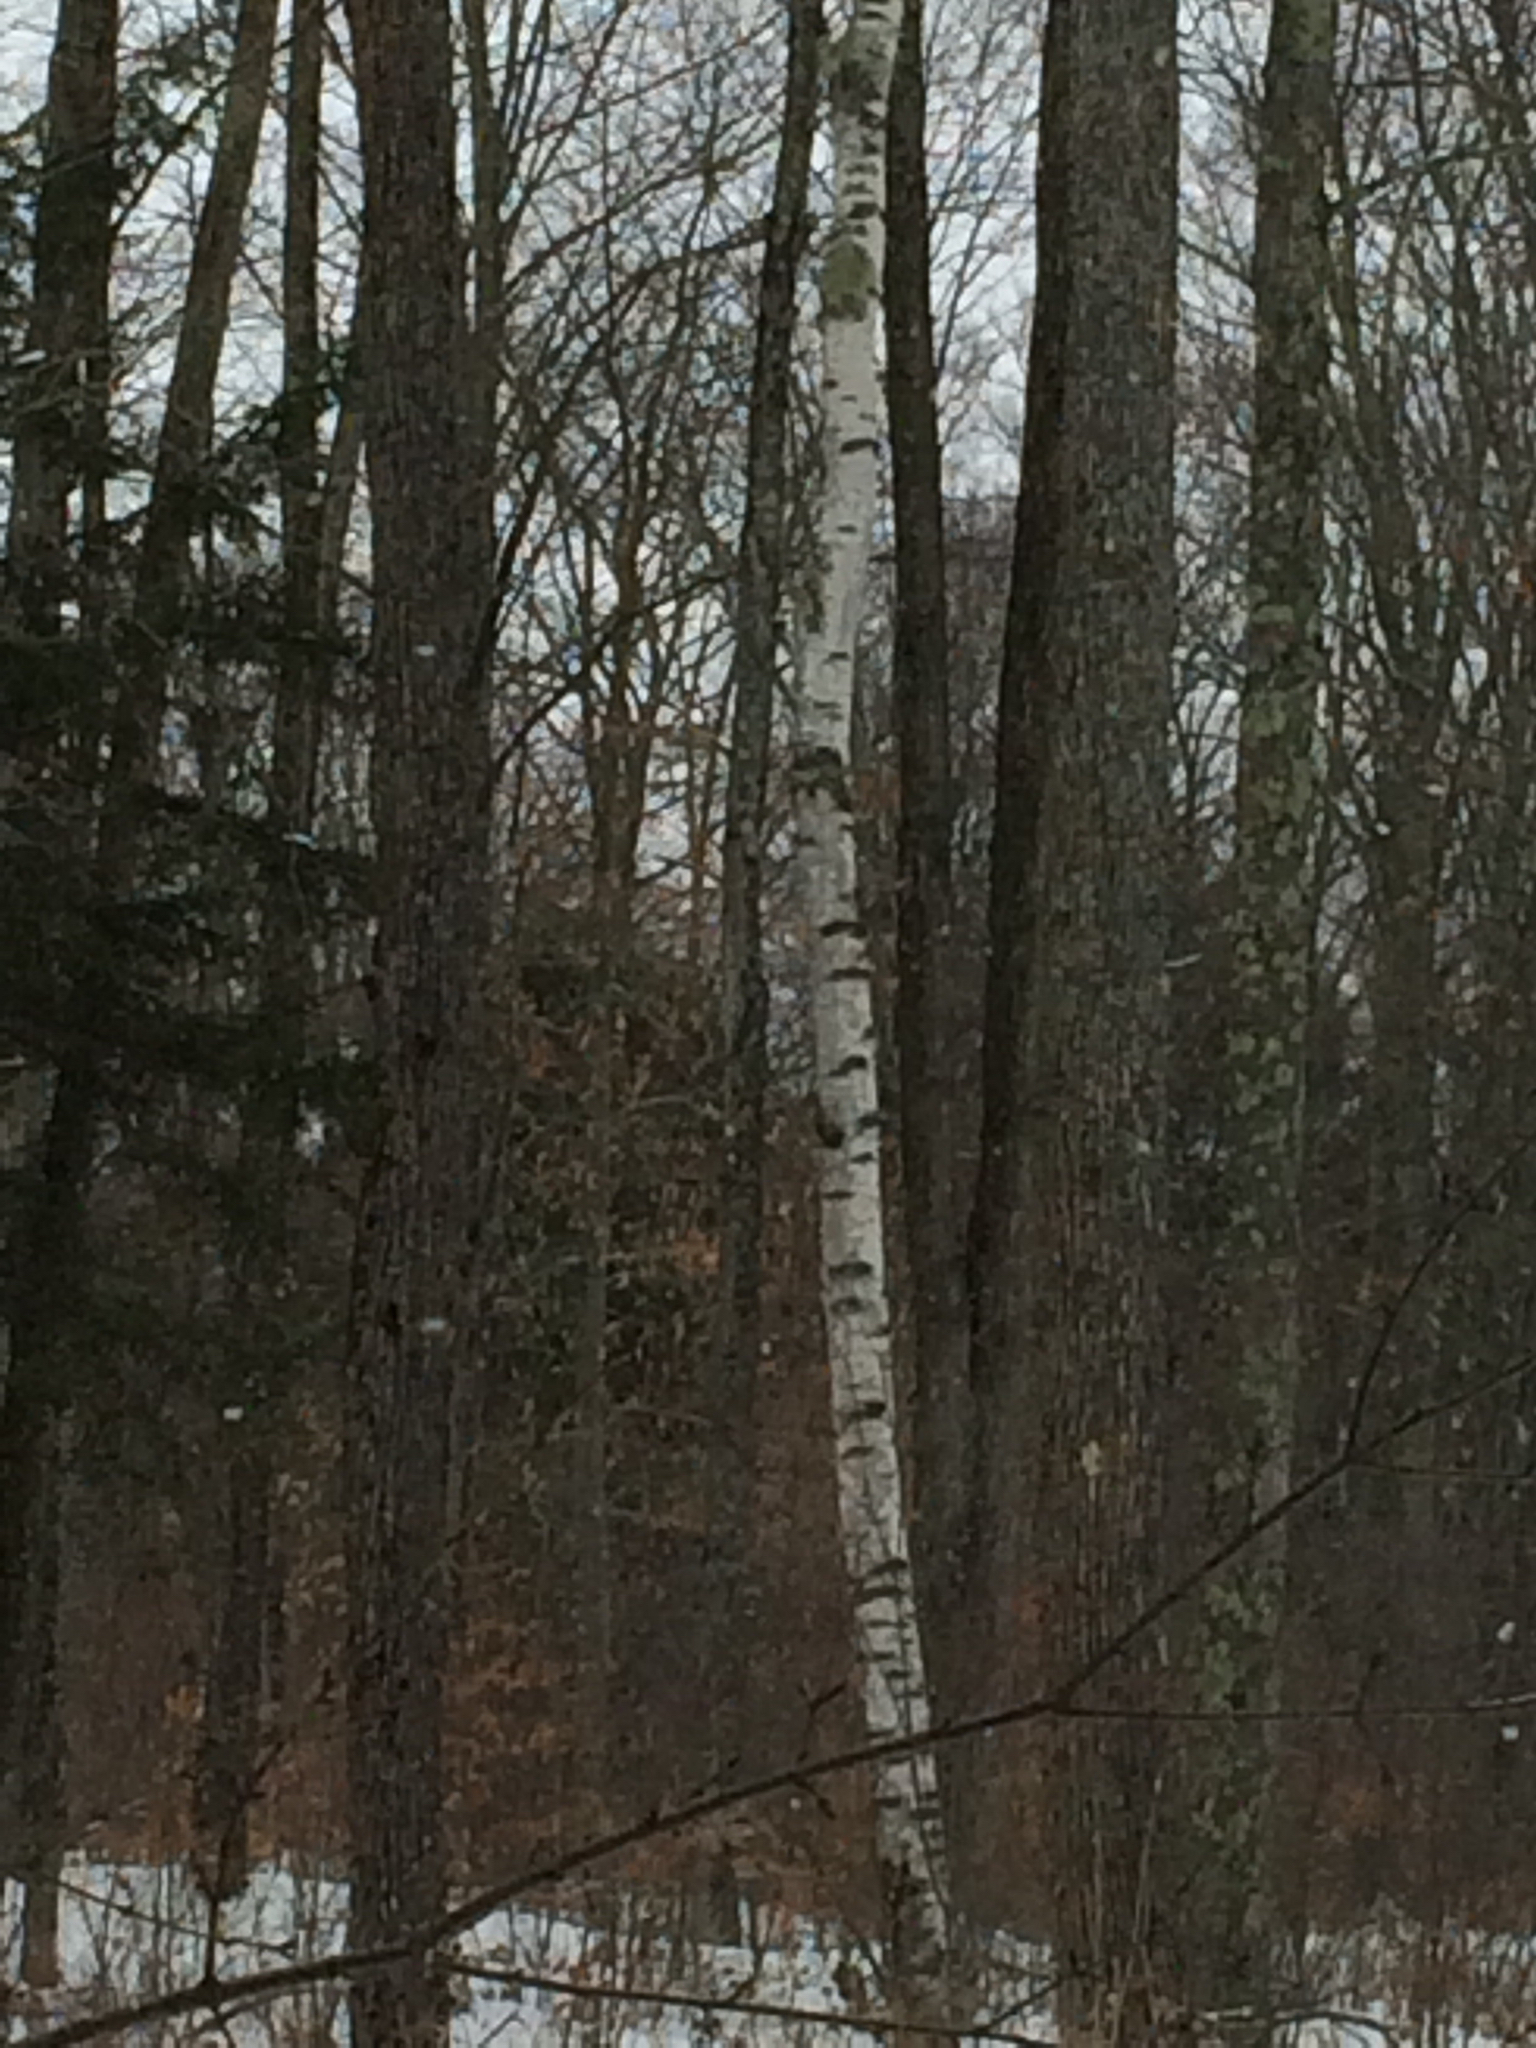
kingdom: Plantae
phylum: Tracheophyta
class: Magnoliopsida
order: Fagales
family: Betulaceae
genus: Betula
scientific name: Betula populifolia
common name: Fire birch
